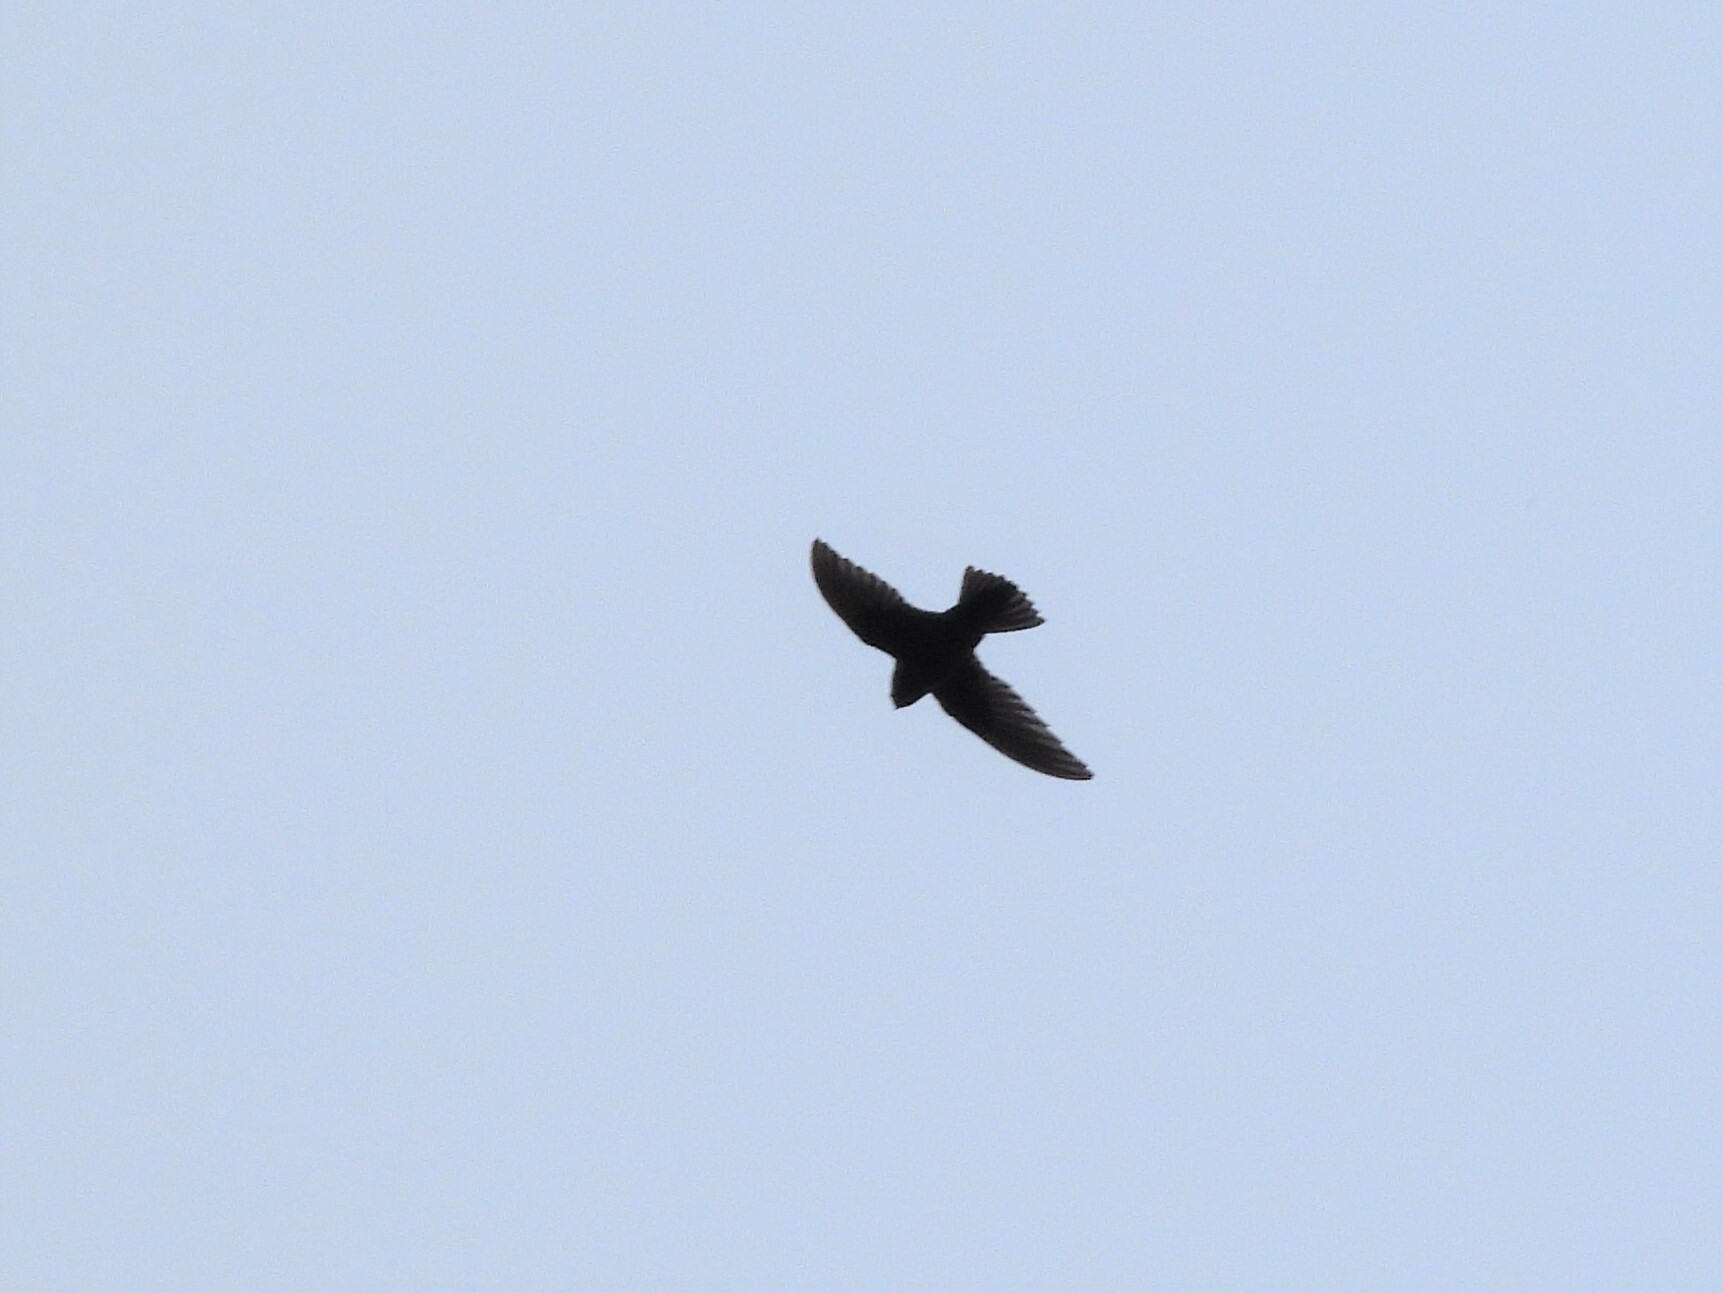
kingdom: Animalia
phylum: Chordata
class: Aves
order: Apodiformes
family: Apodidae
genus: Chaetura
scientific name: Chaetura vauxi
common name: Vaux's swift
